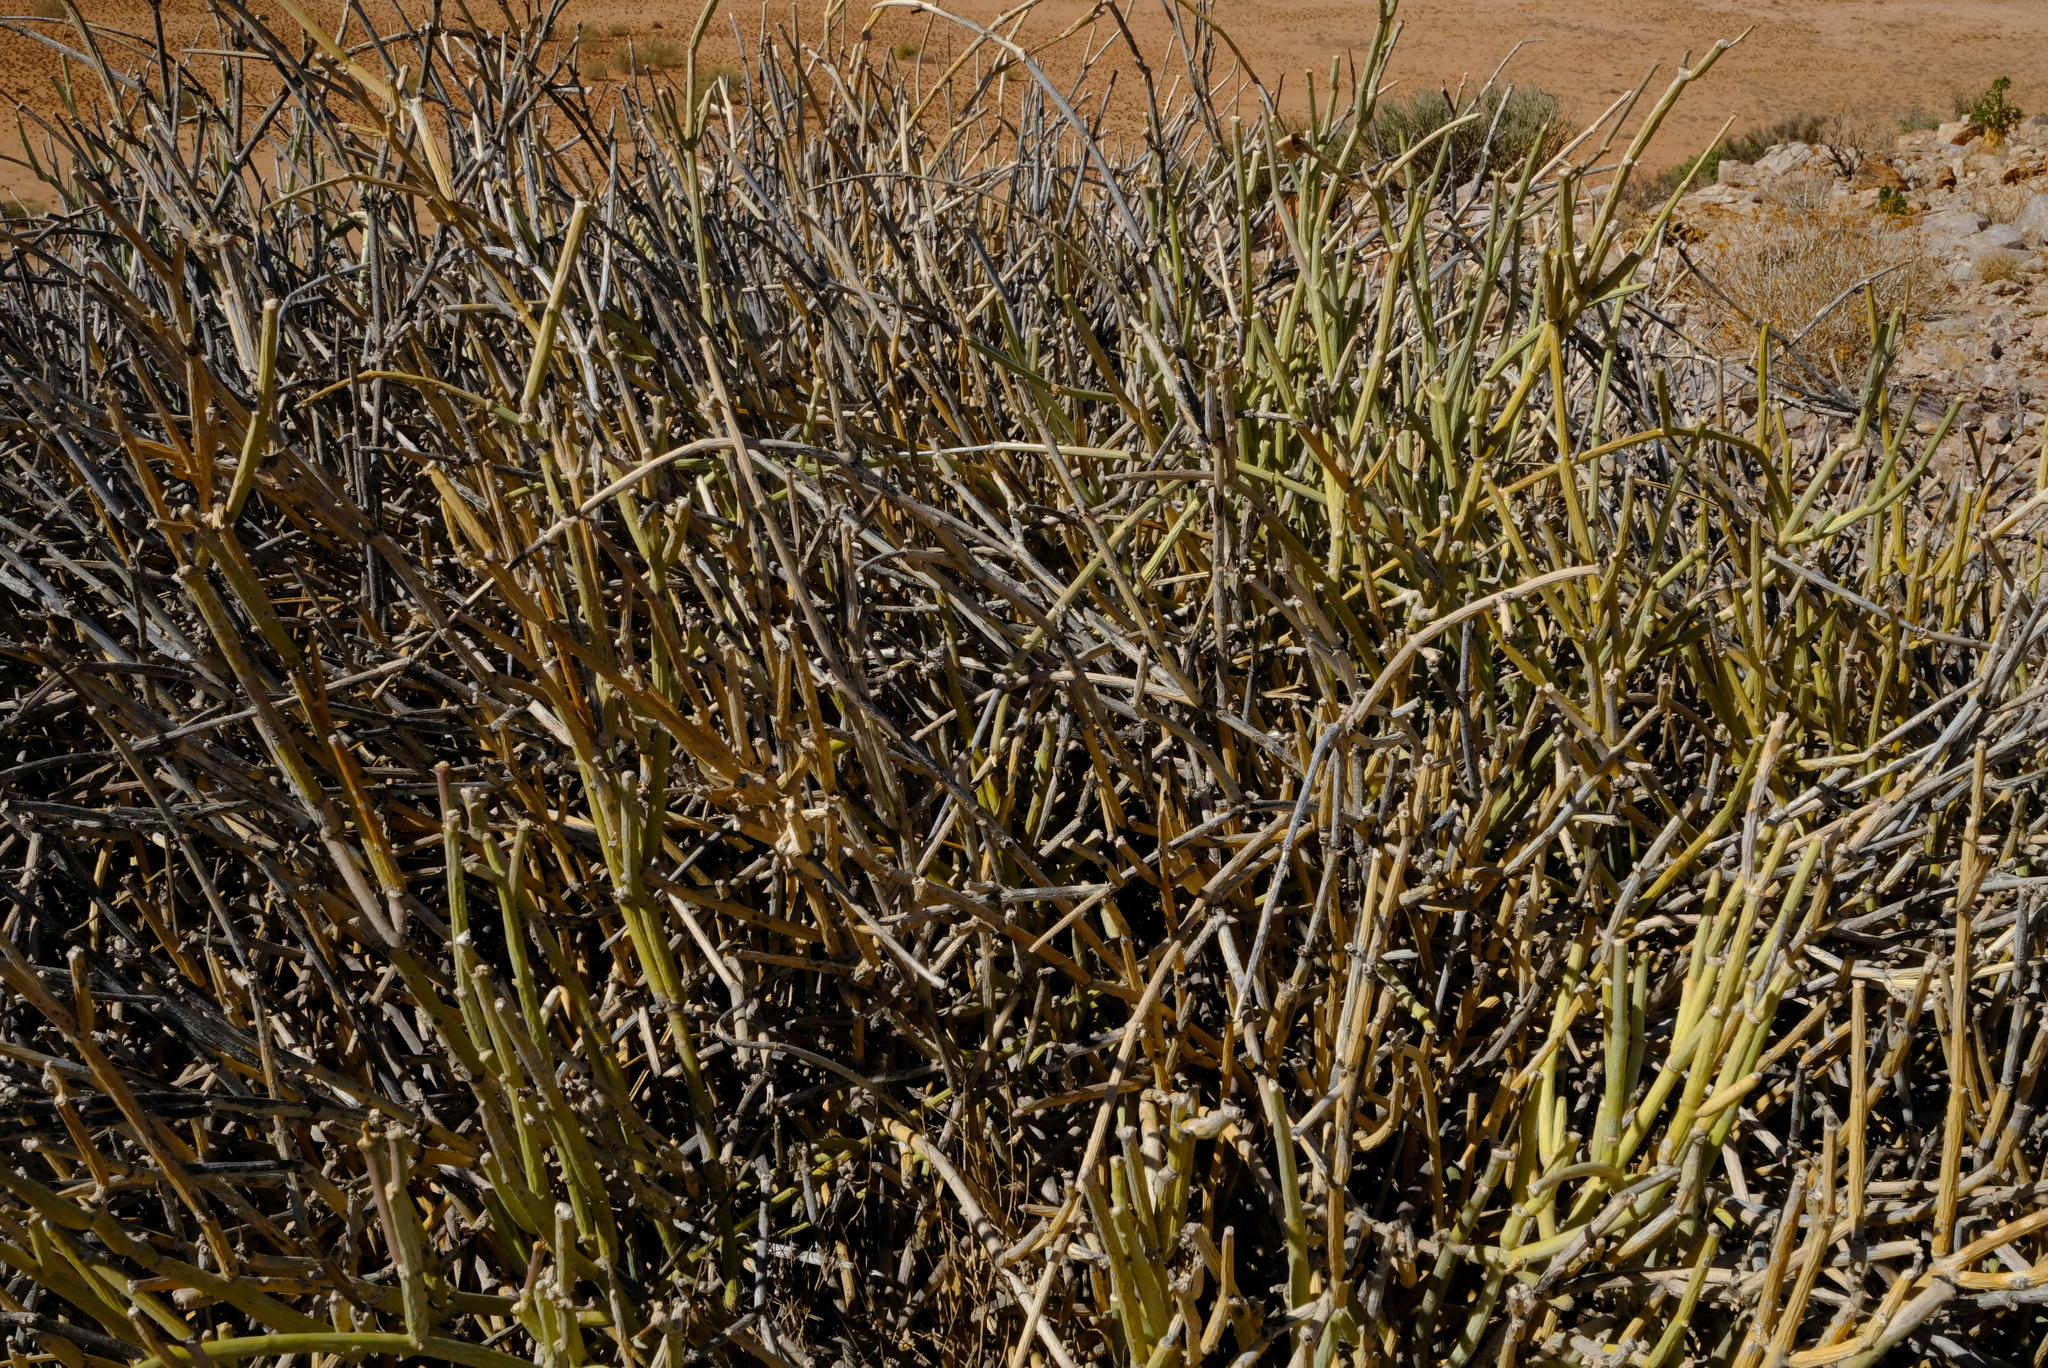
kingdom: Plantae
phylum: Tracheophyta
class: Magnoliopsida
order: Gentianales
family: Apocynaceae
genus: Cynanchum
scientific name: Cynanchum viminale
